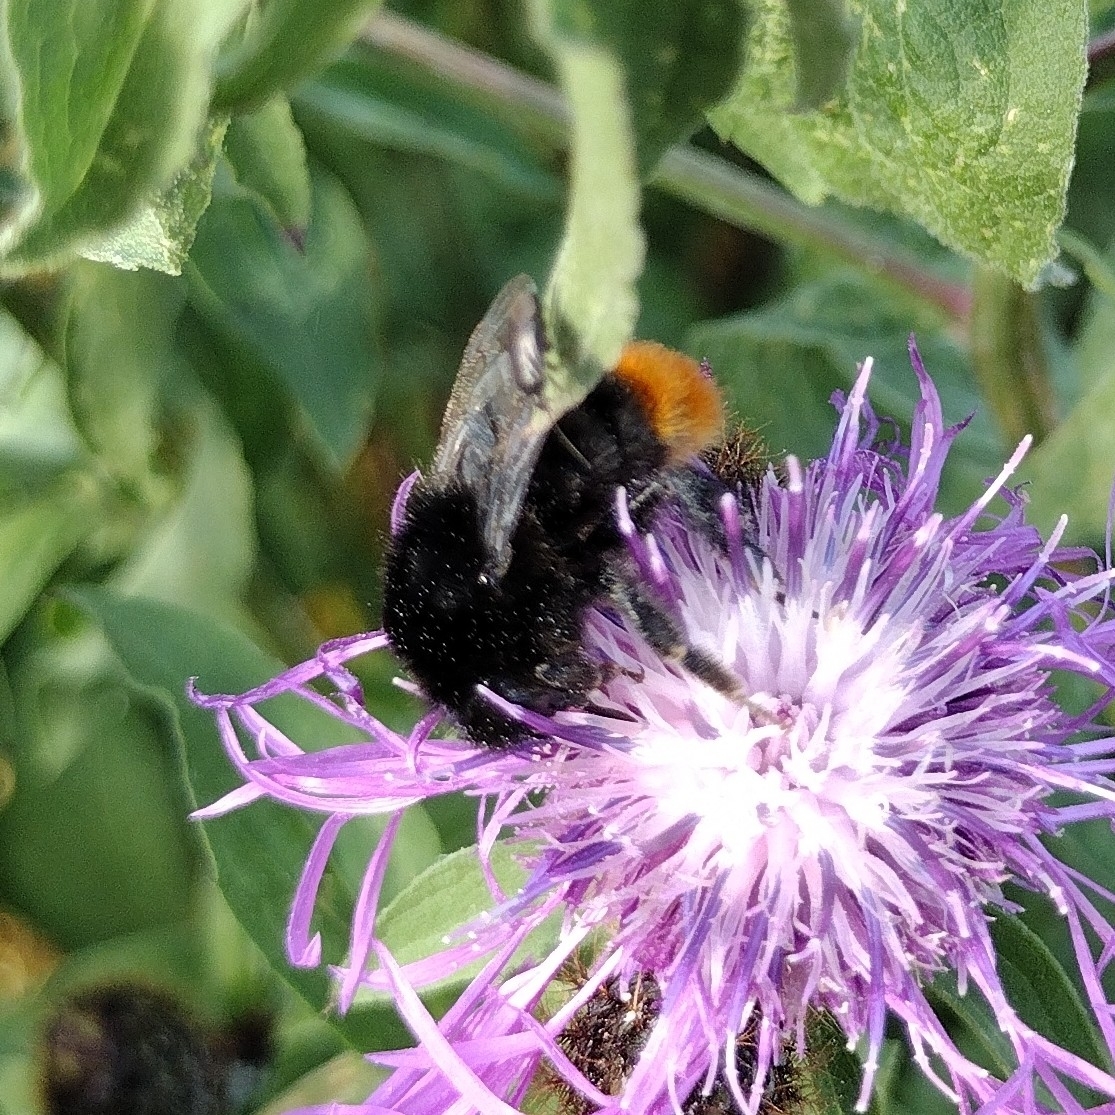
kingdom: Animalia
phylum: Arthropoda
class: Insecta
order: Hymenoptera
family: Apidae
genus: Bombus
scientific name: Bombus lapidarius
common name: Large red-tailed humble-bee
